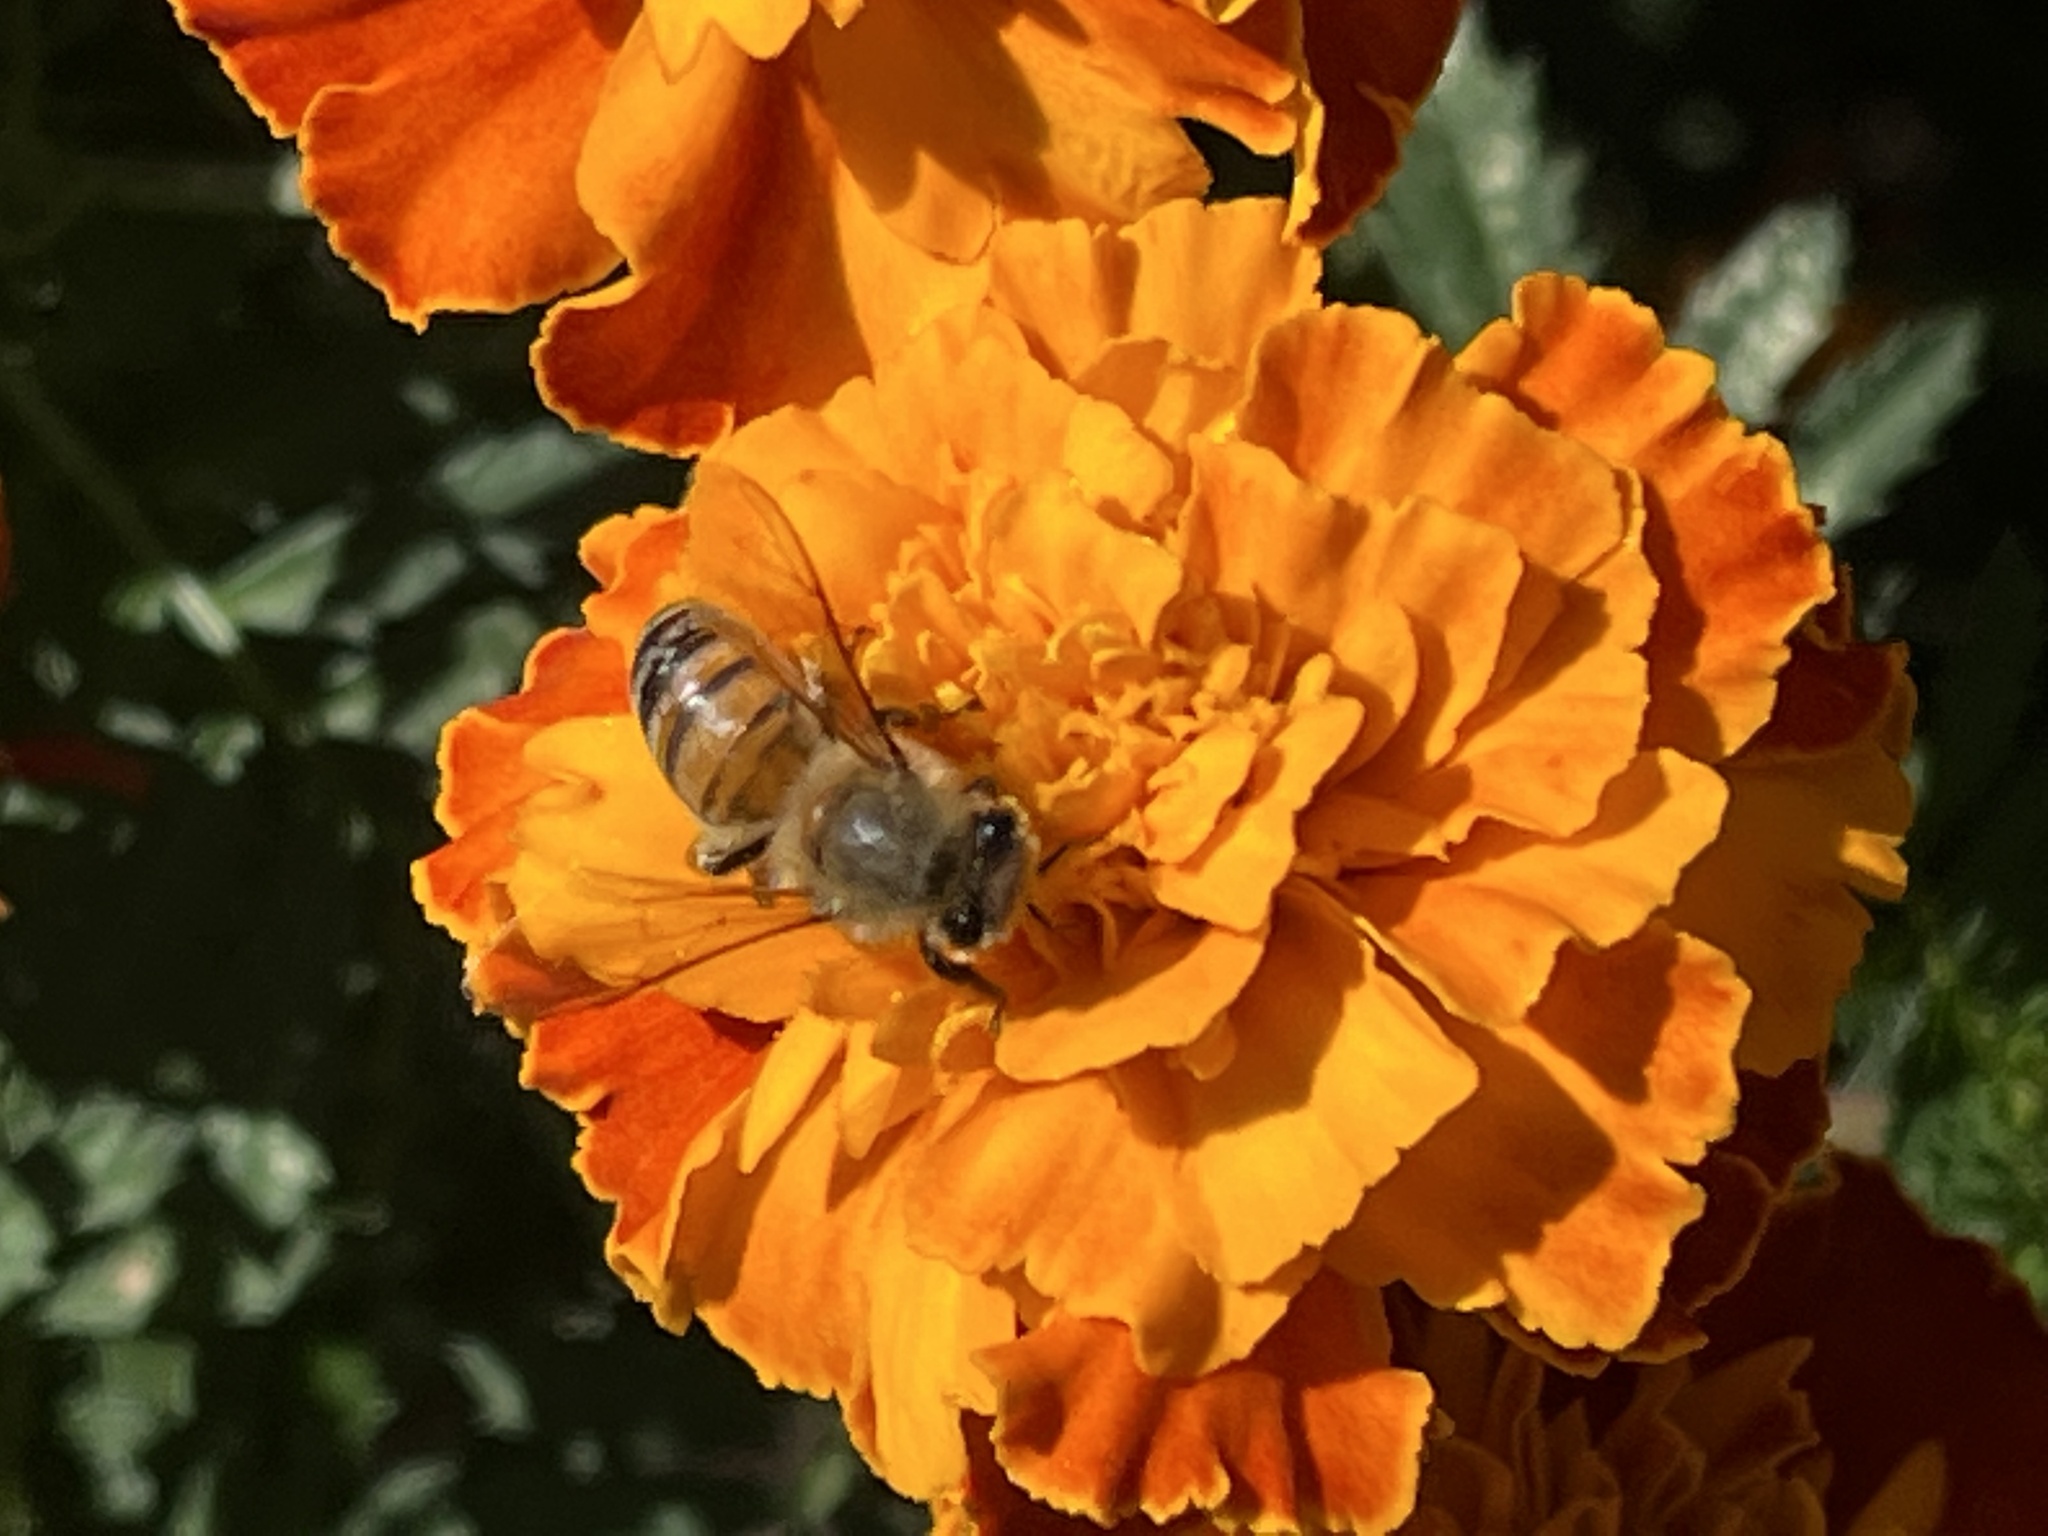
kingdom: Animalia
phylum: Arthropoda
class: Insecta
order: Hymenoptera
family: Apidae
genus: Apis
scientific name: Apis mellifera
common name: Honey bee
